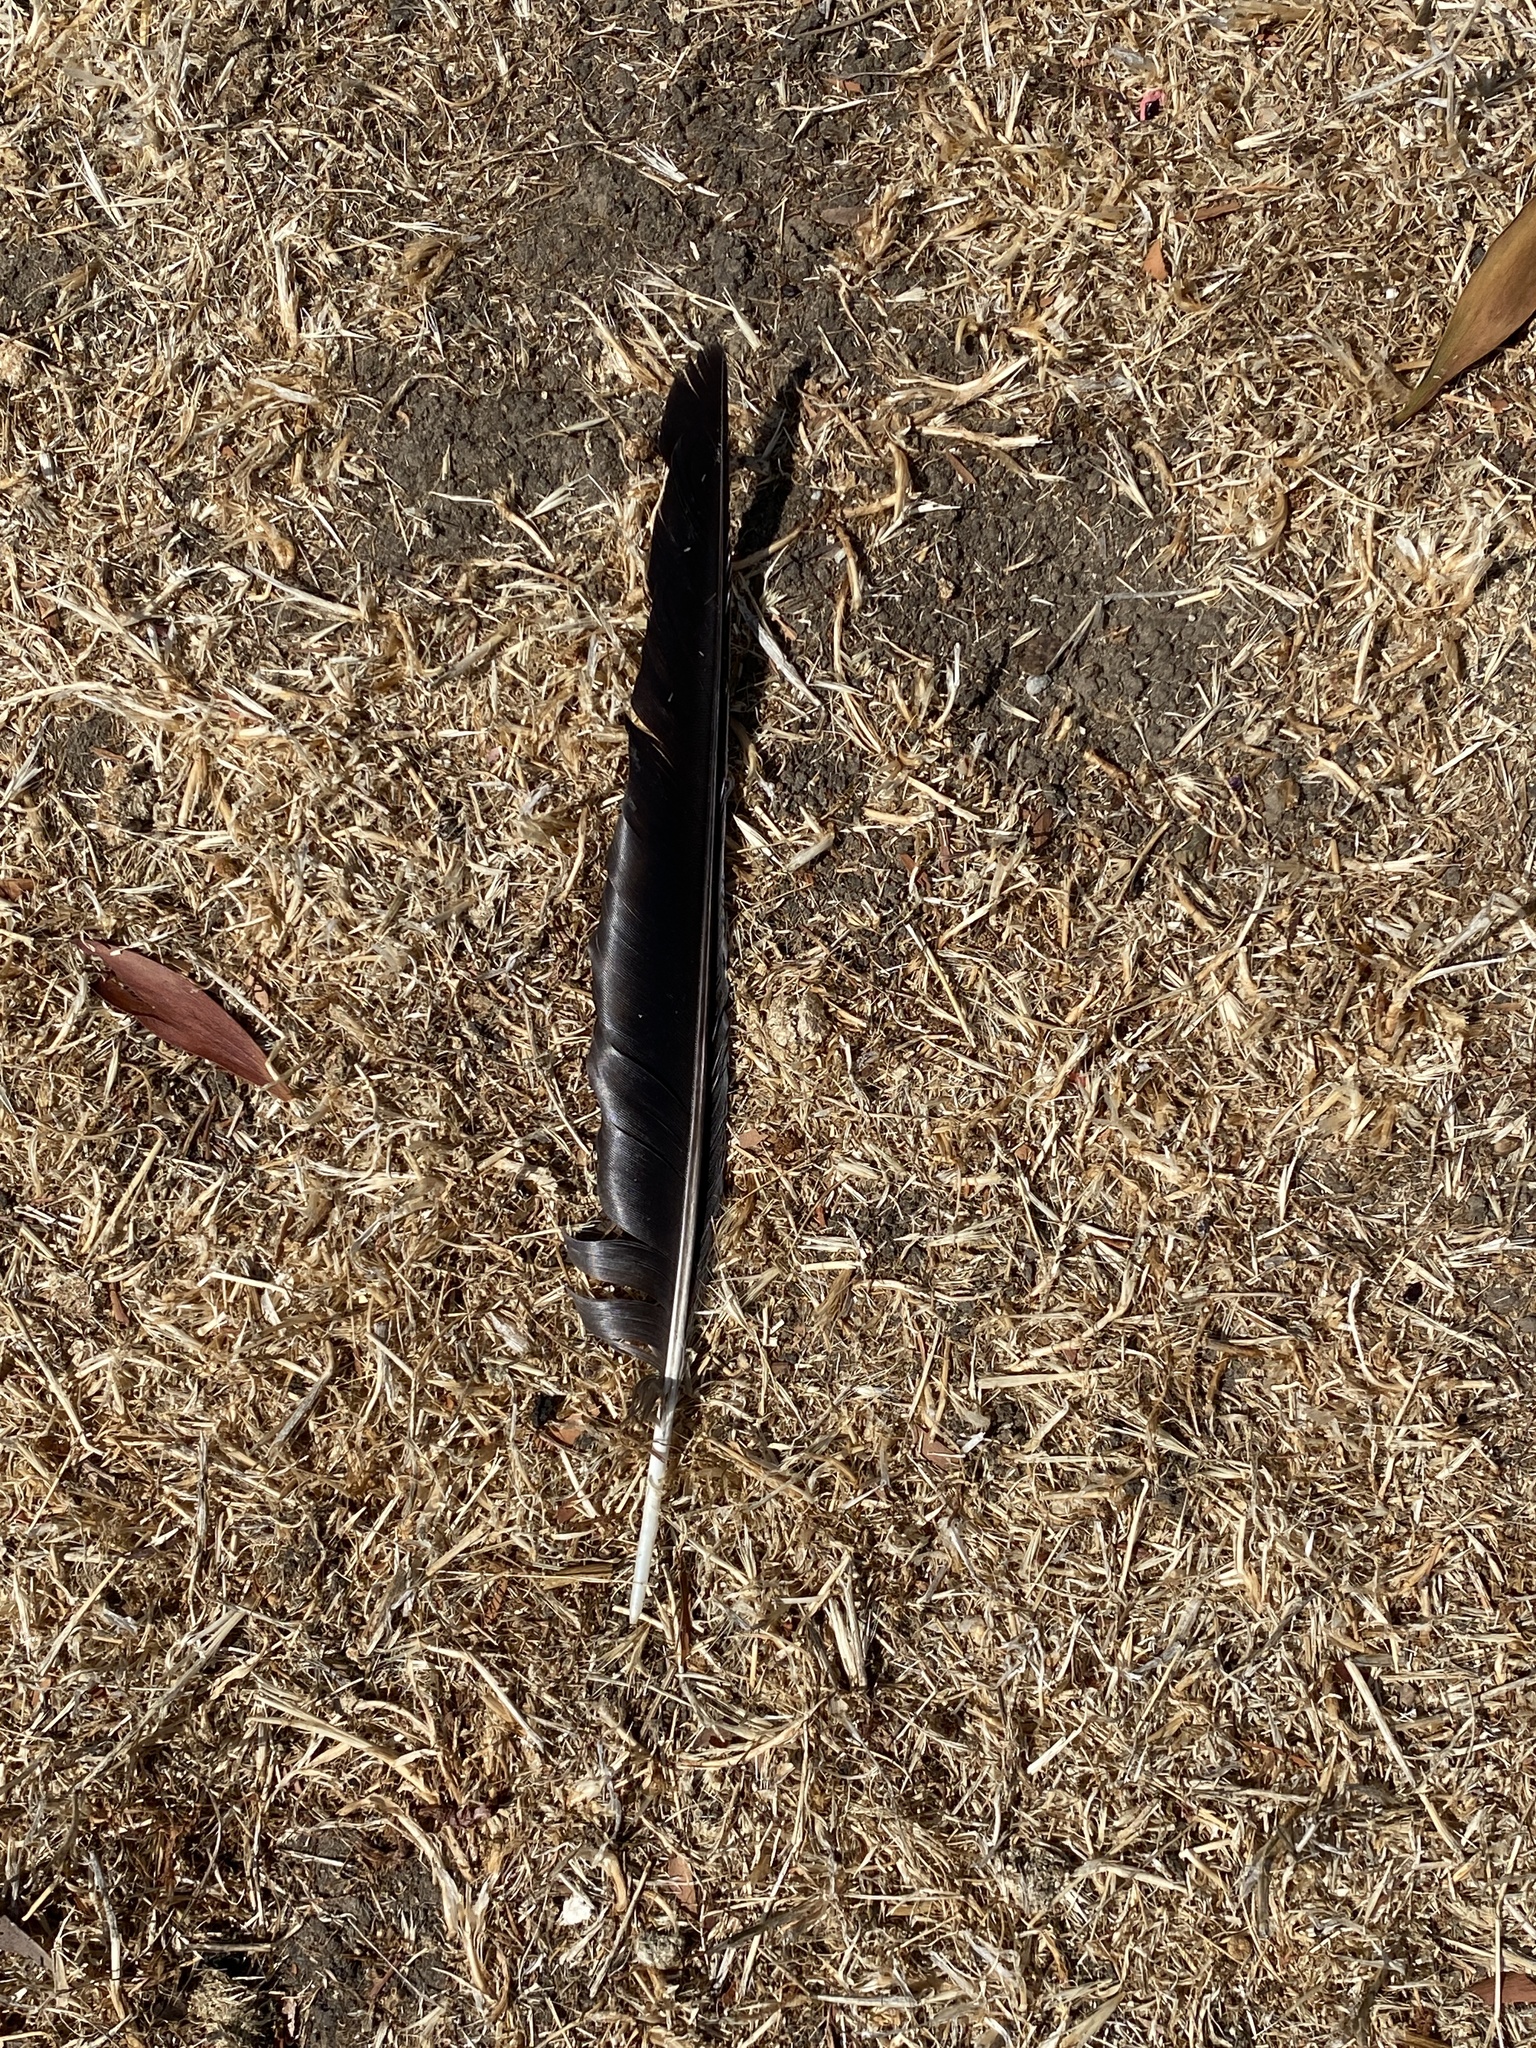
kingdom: Animalia
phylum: Chordata
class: Aves
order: Passeriformes
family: Corvidae
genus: Corvus
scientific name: Corvus brachyrhynchos
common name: American crow
